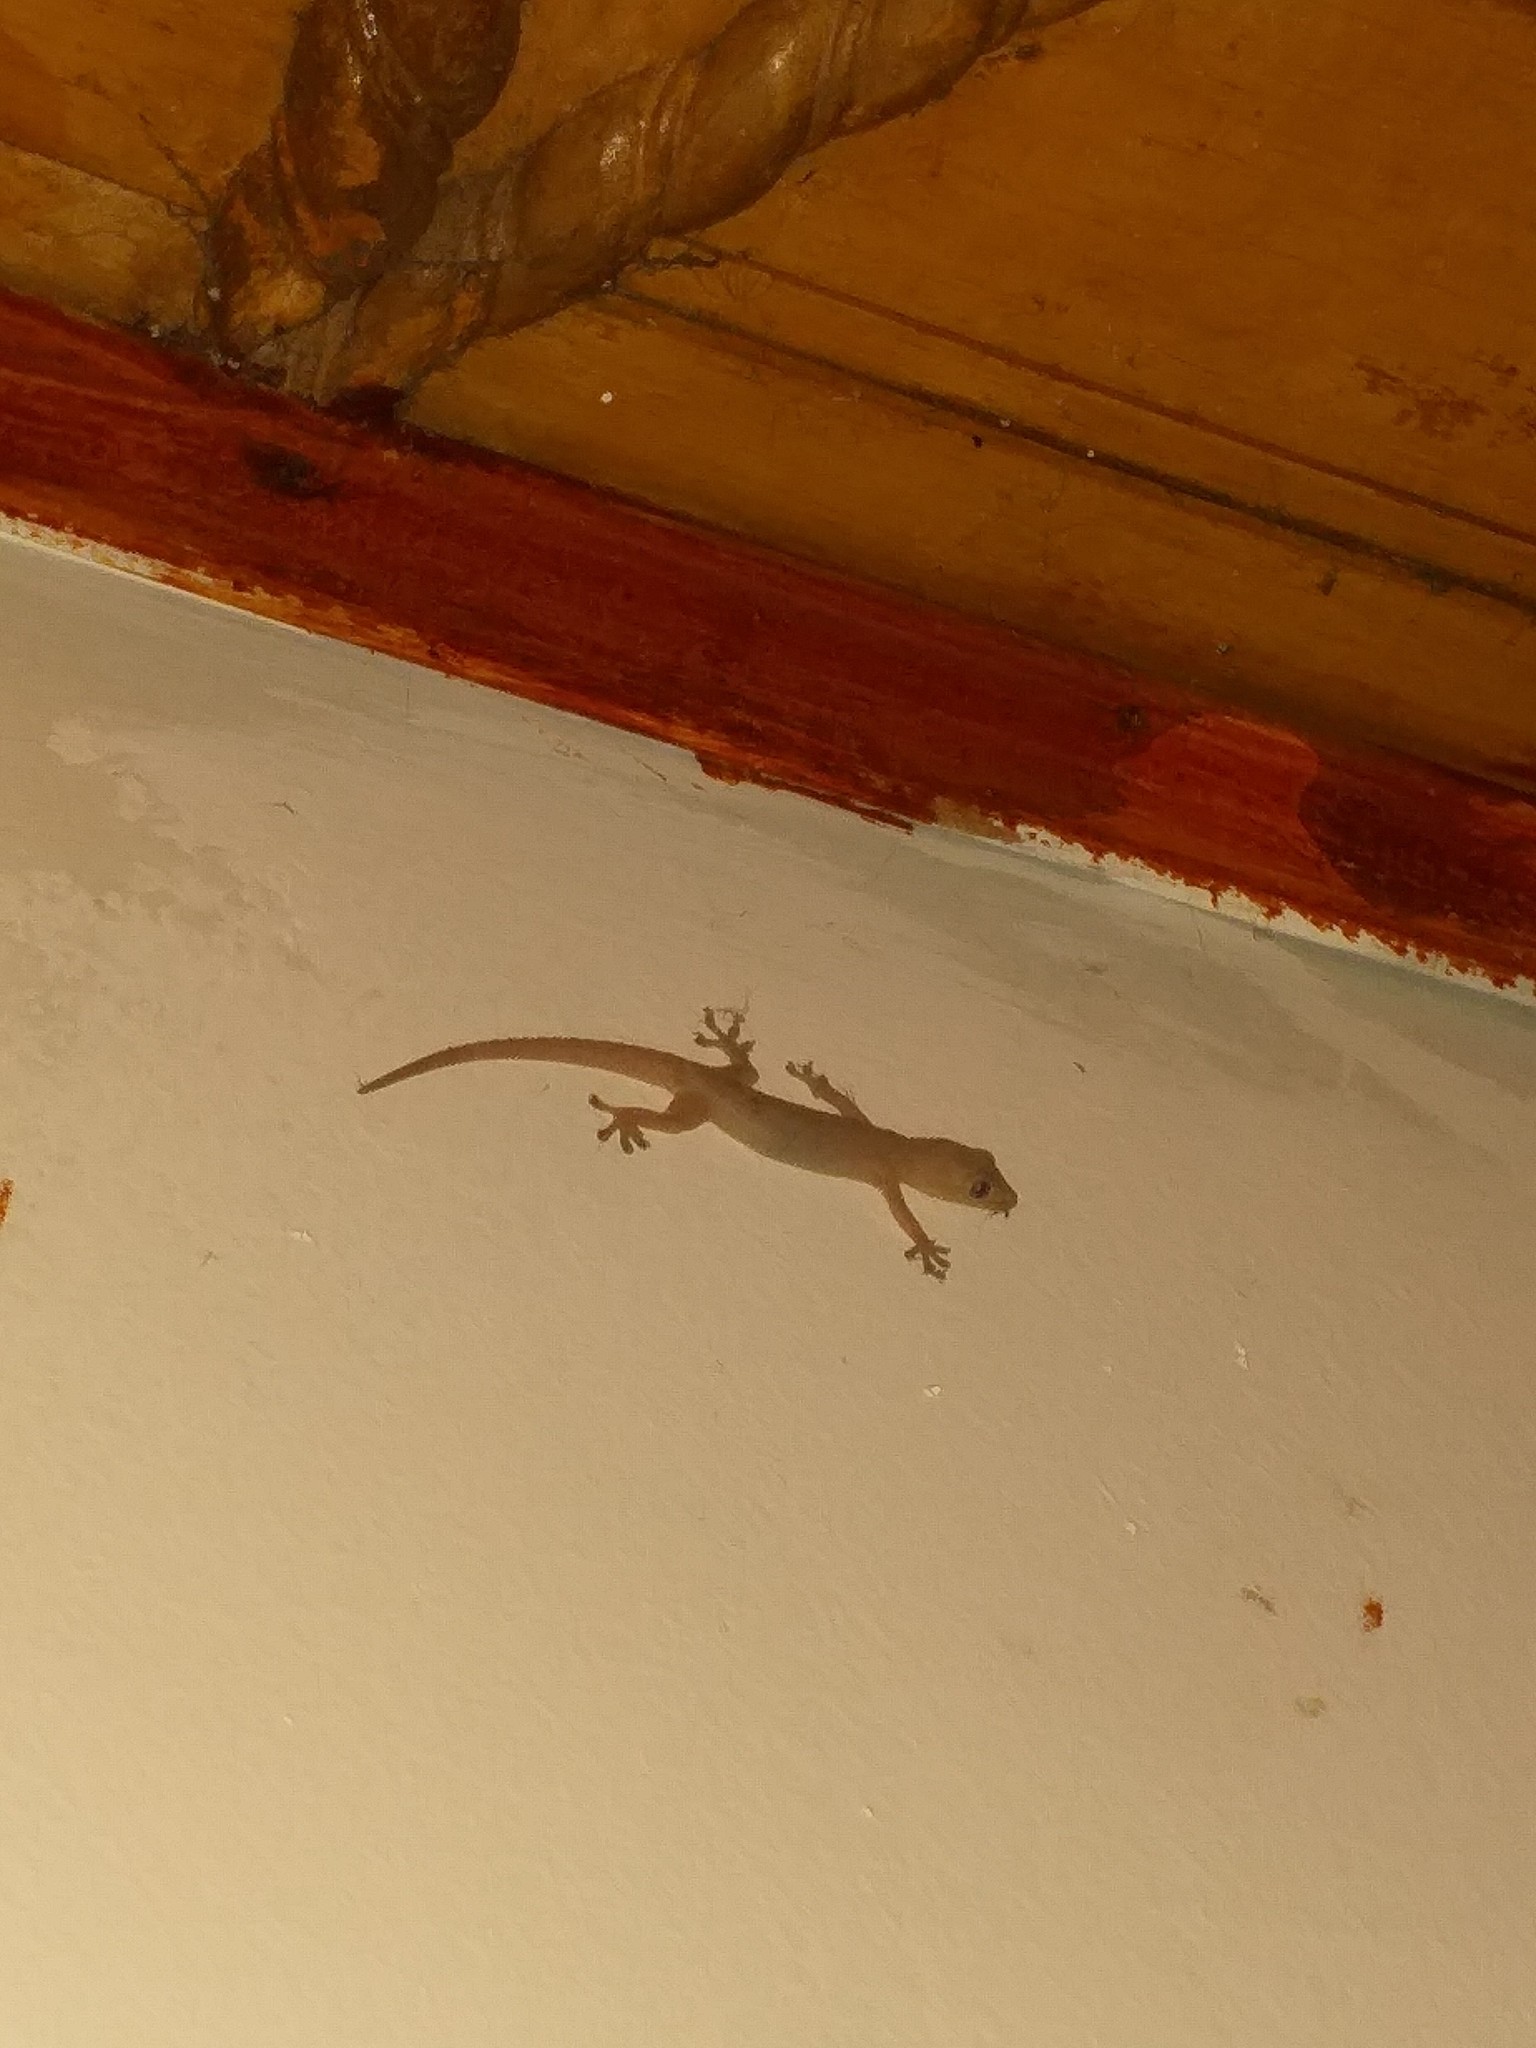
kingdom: Animalia
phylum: Chordata
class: Squamata
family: Gekkonidae
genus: Hemidactylus
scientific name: Hemidactylus frenatus
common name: Common house gecko
